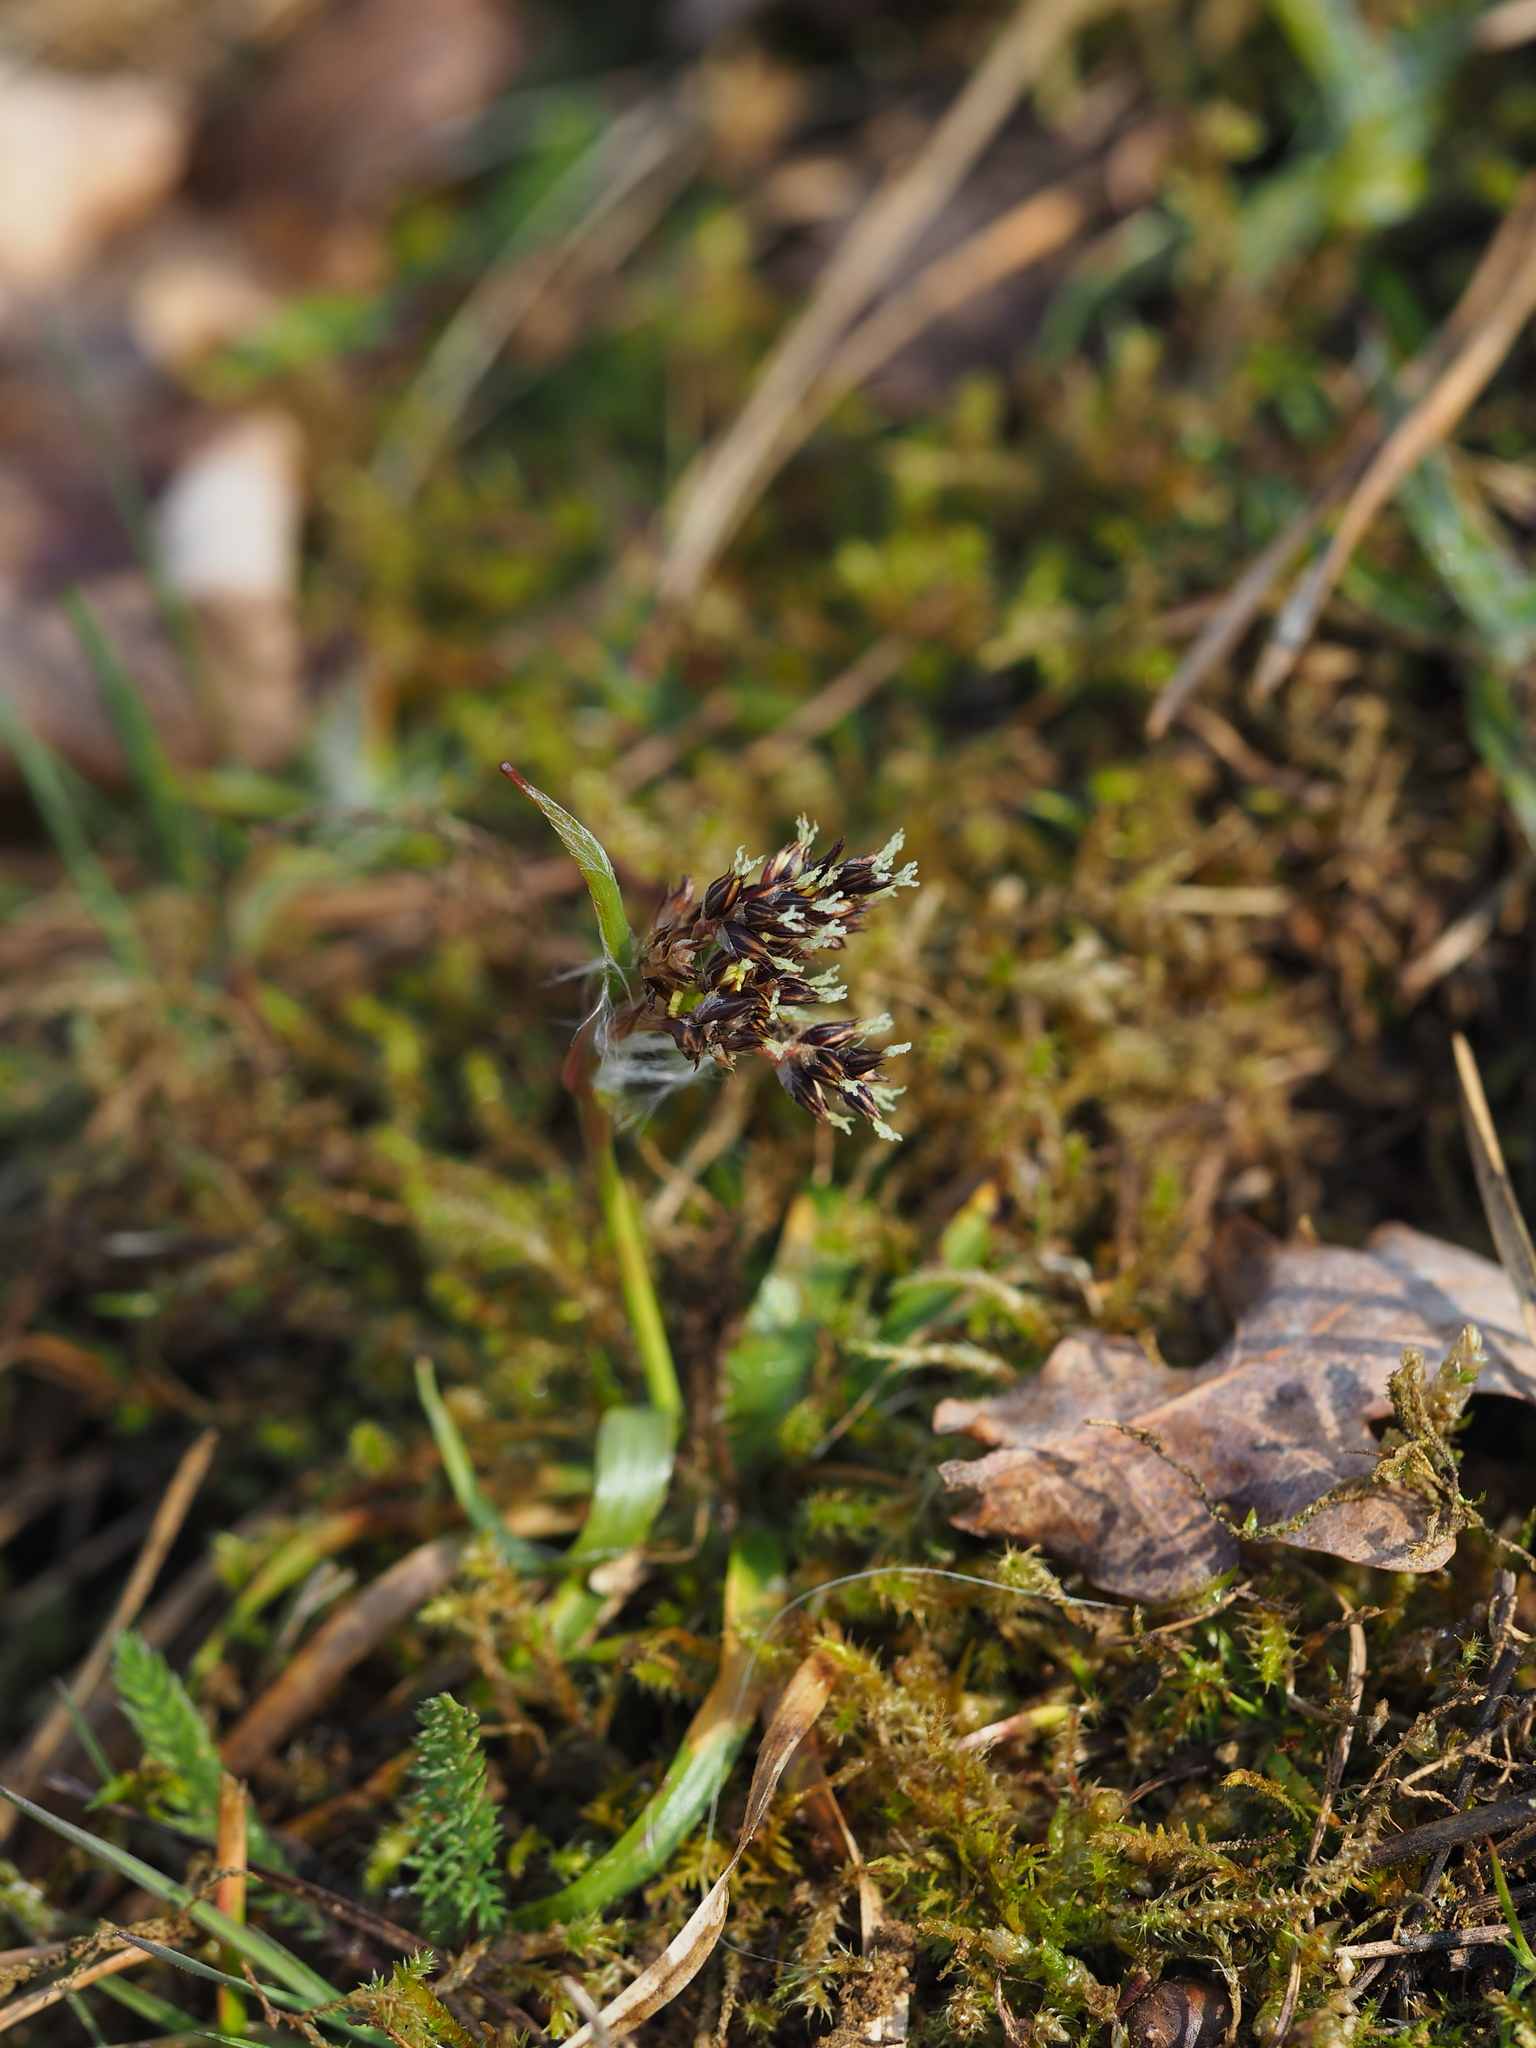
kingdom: Plantae
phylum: Tracheophyta
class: Liliopsida
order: Poales
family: Juncaceae
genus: Luzula
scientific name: Luzula campestris
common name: Field wood-rush
